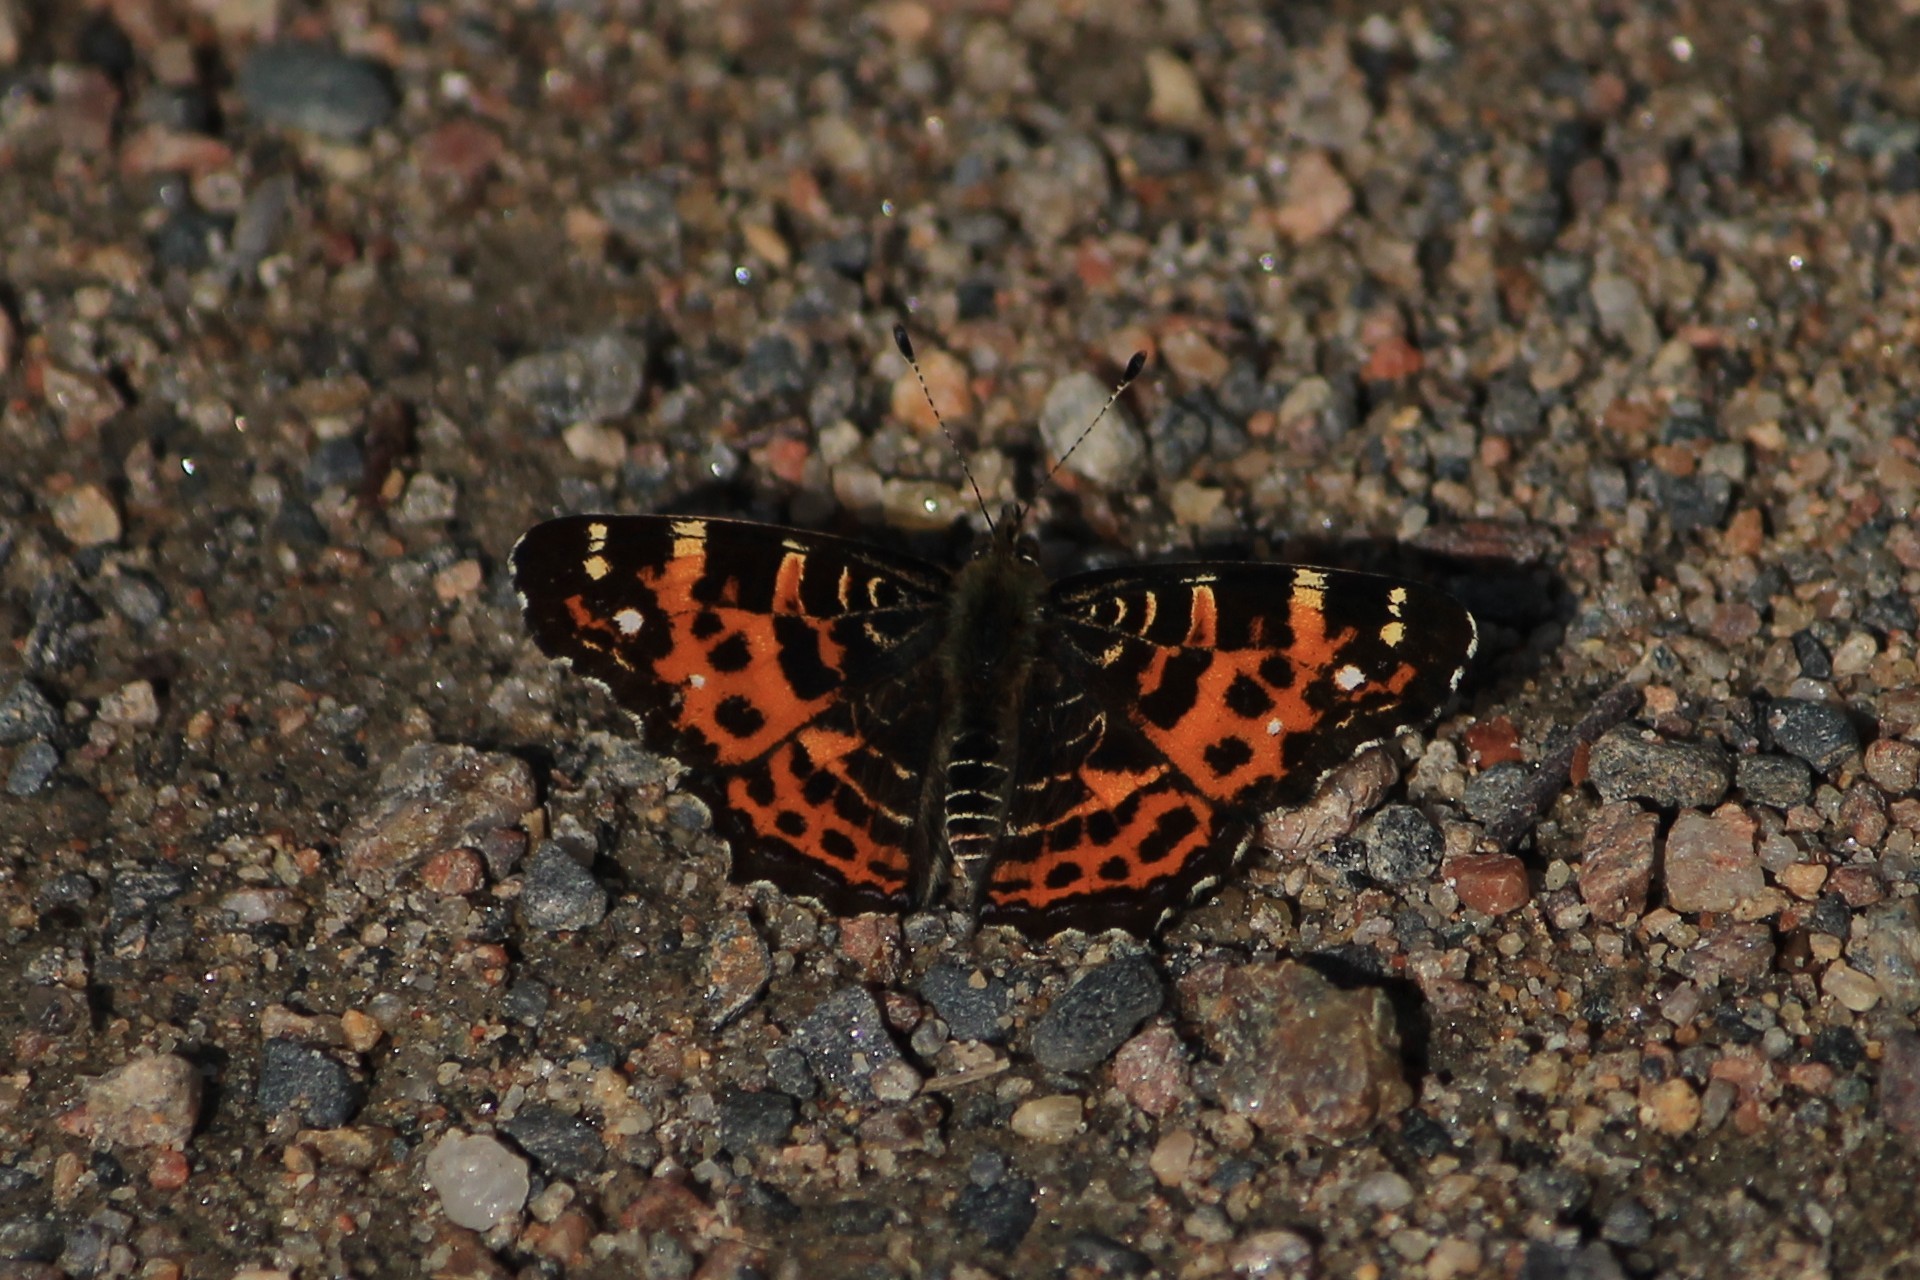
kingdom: Animalia
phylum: Arthropoda
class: Insecta
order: Lepidoptera
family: Nymphalidae
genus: Araschnia
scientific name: Araschnia levana
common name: Map butterfly
